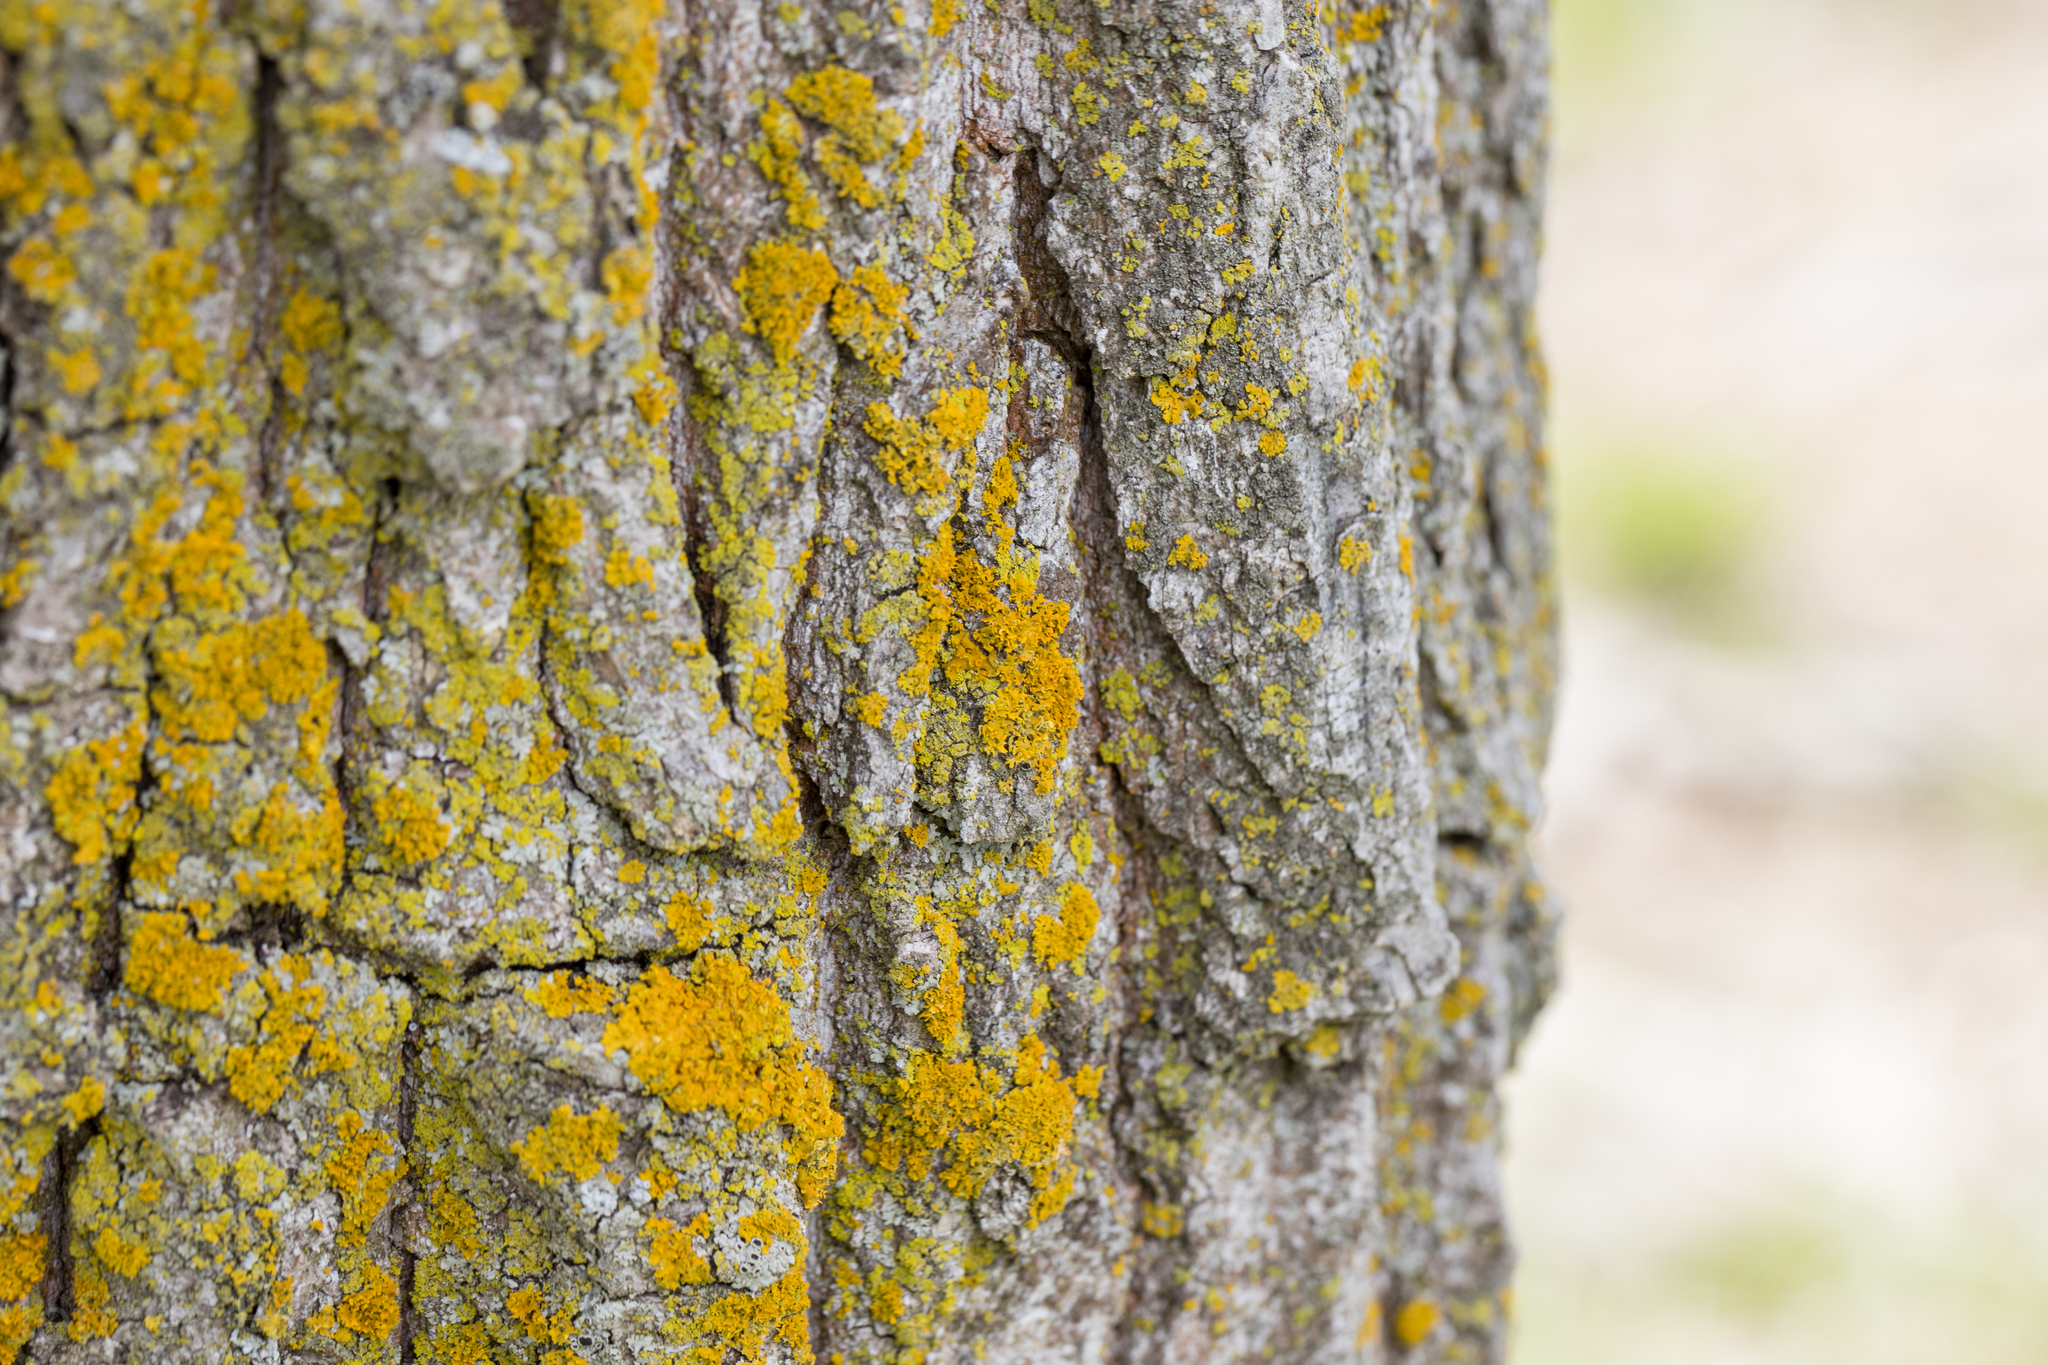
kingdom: Fungi
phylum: Ascomycota
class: Candelariomycetes
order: Candelariales
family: Candelariaceae
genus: Candelaria
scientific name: Candelaria concolor
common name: Candleflame lichen
